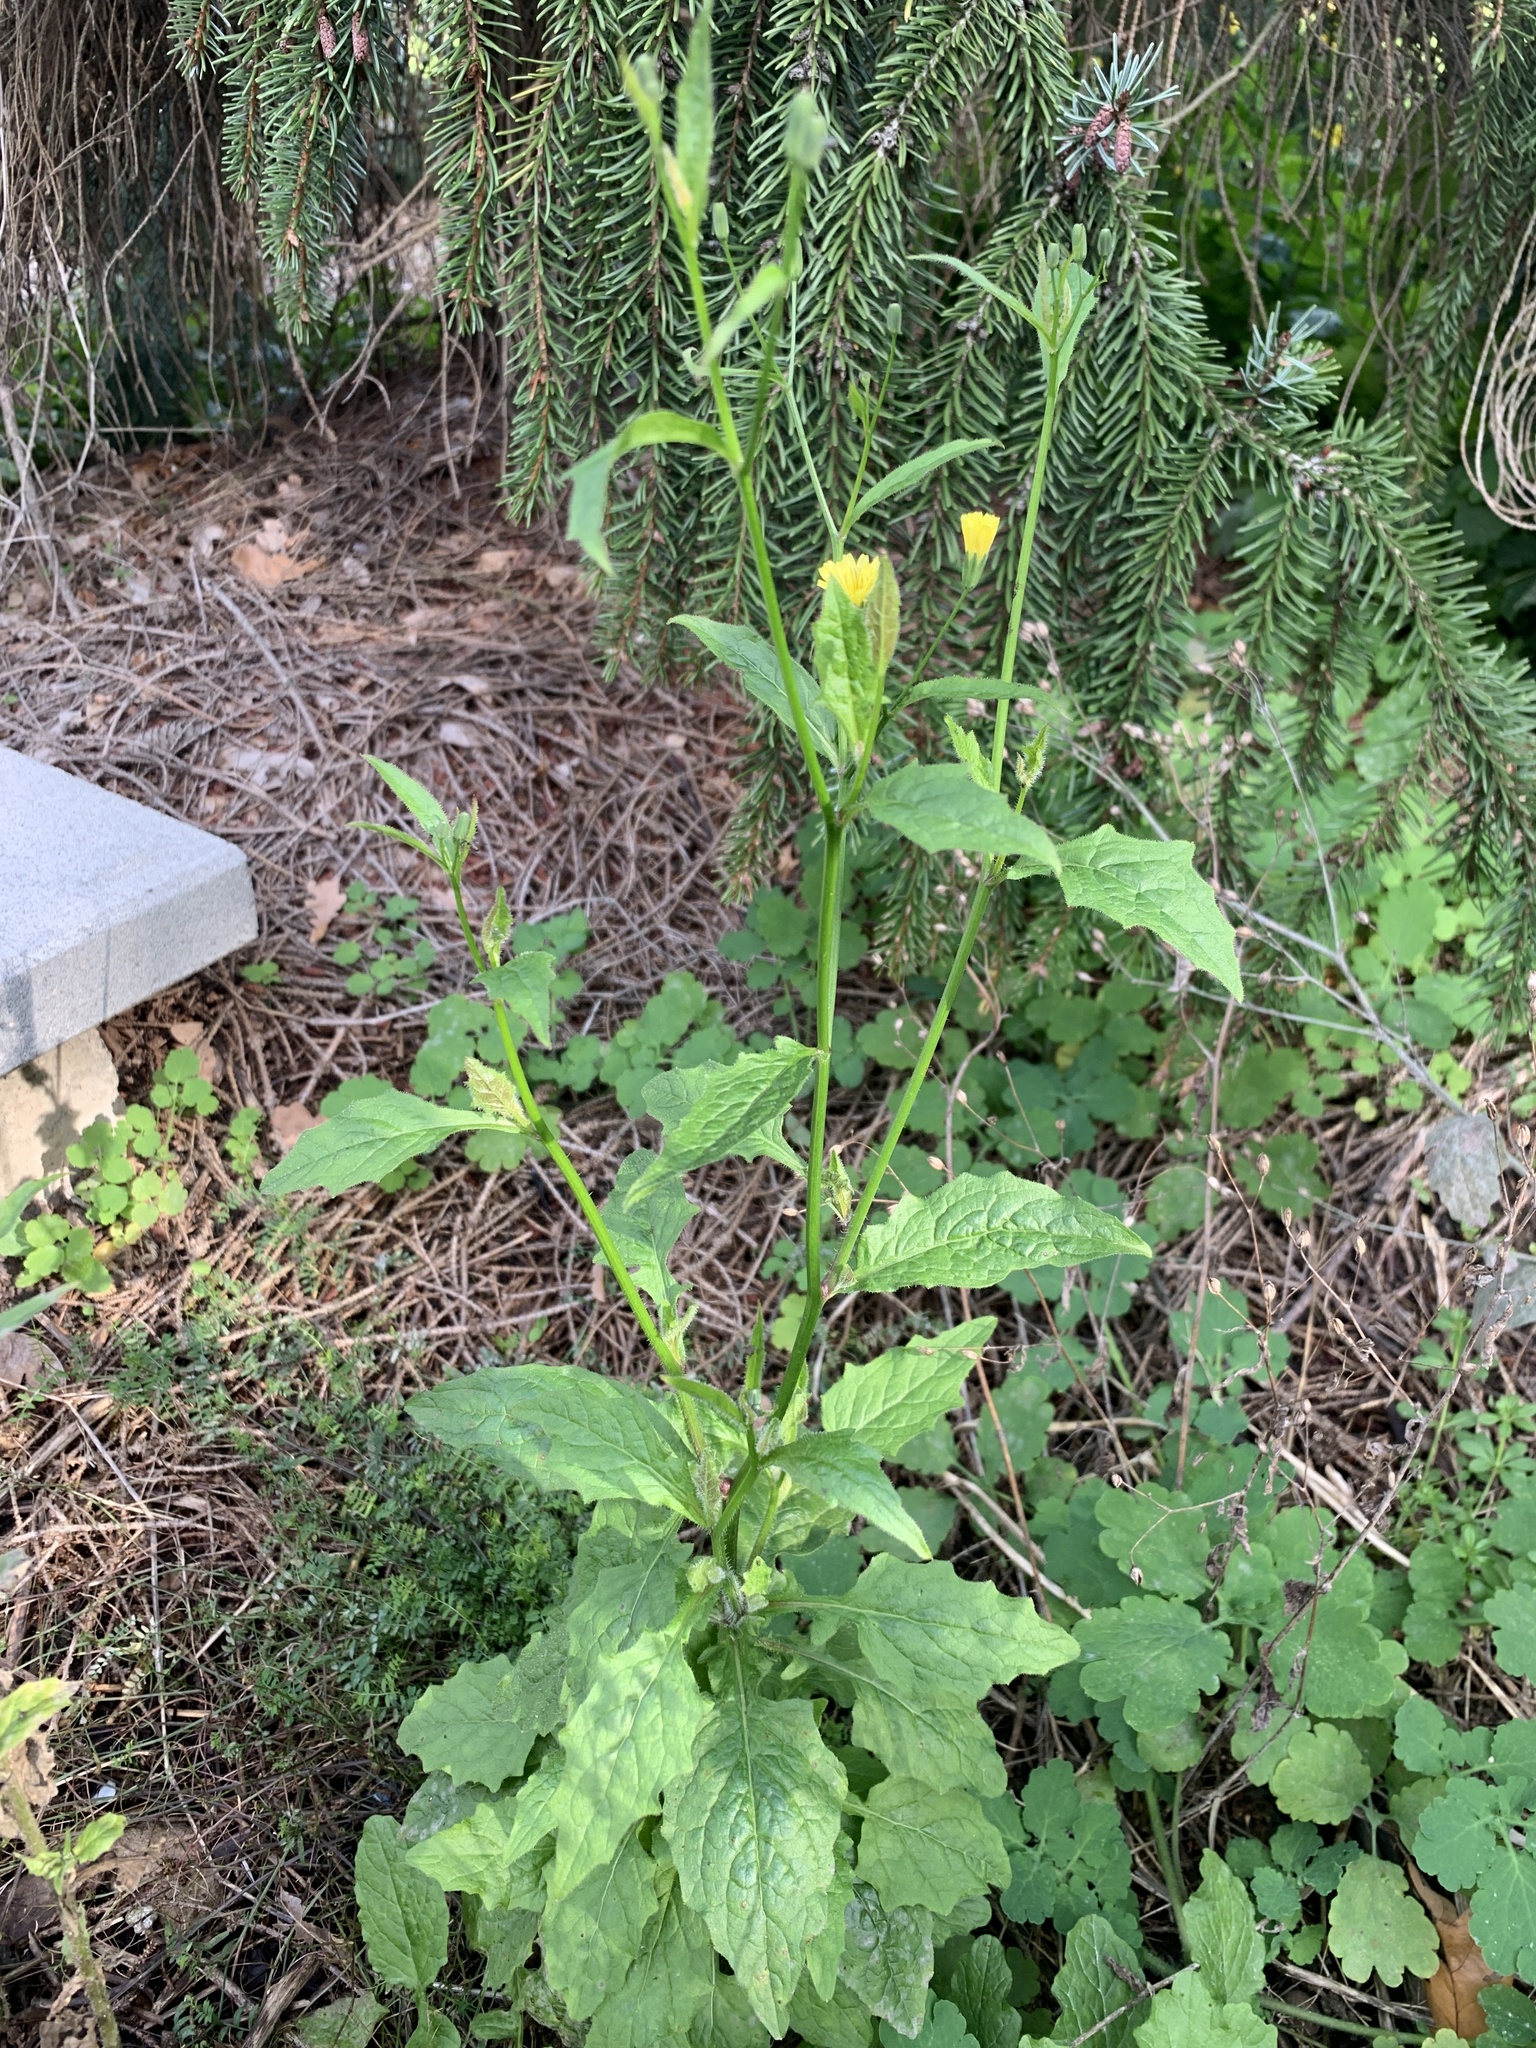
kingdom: Plantae
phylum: Tracheophyta
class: Magnoliopsida
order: Asterales
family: Asteraceae
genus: Lapsana
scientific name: Lapsana communis
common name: Nipplewort
